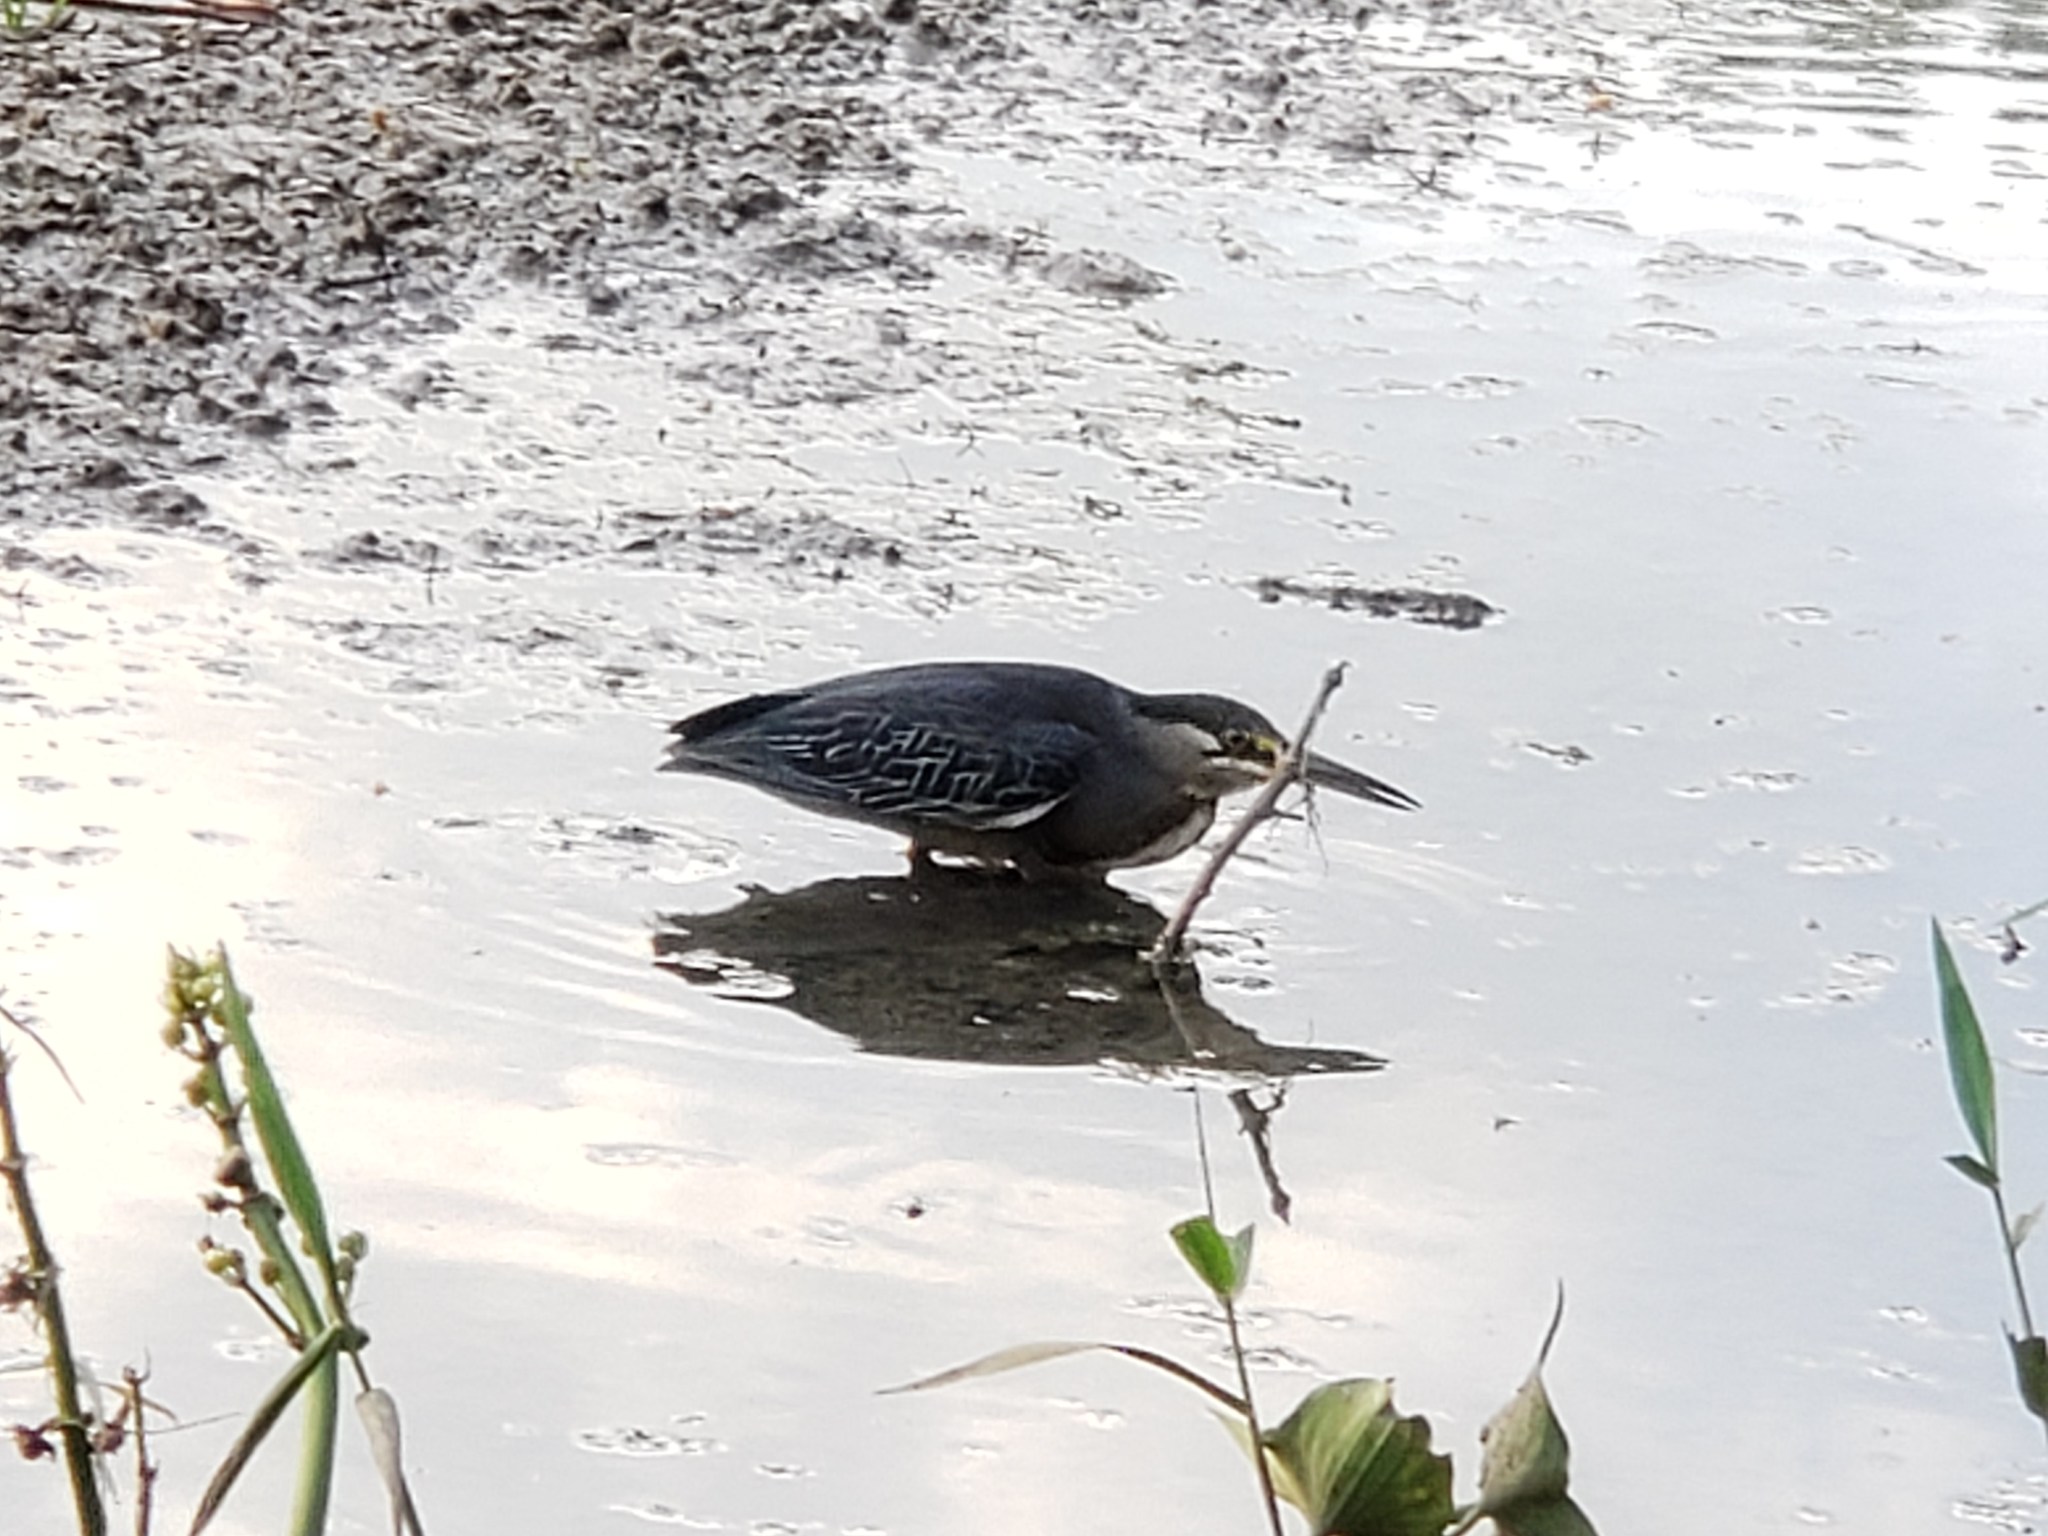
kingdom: Animalia
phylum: Chordata
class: Aves
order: Pelecaniformes
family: Ardeidae
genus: Butorides
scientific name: Butorides striata
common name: Striated heron
